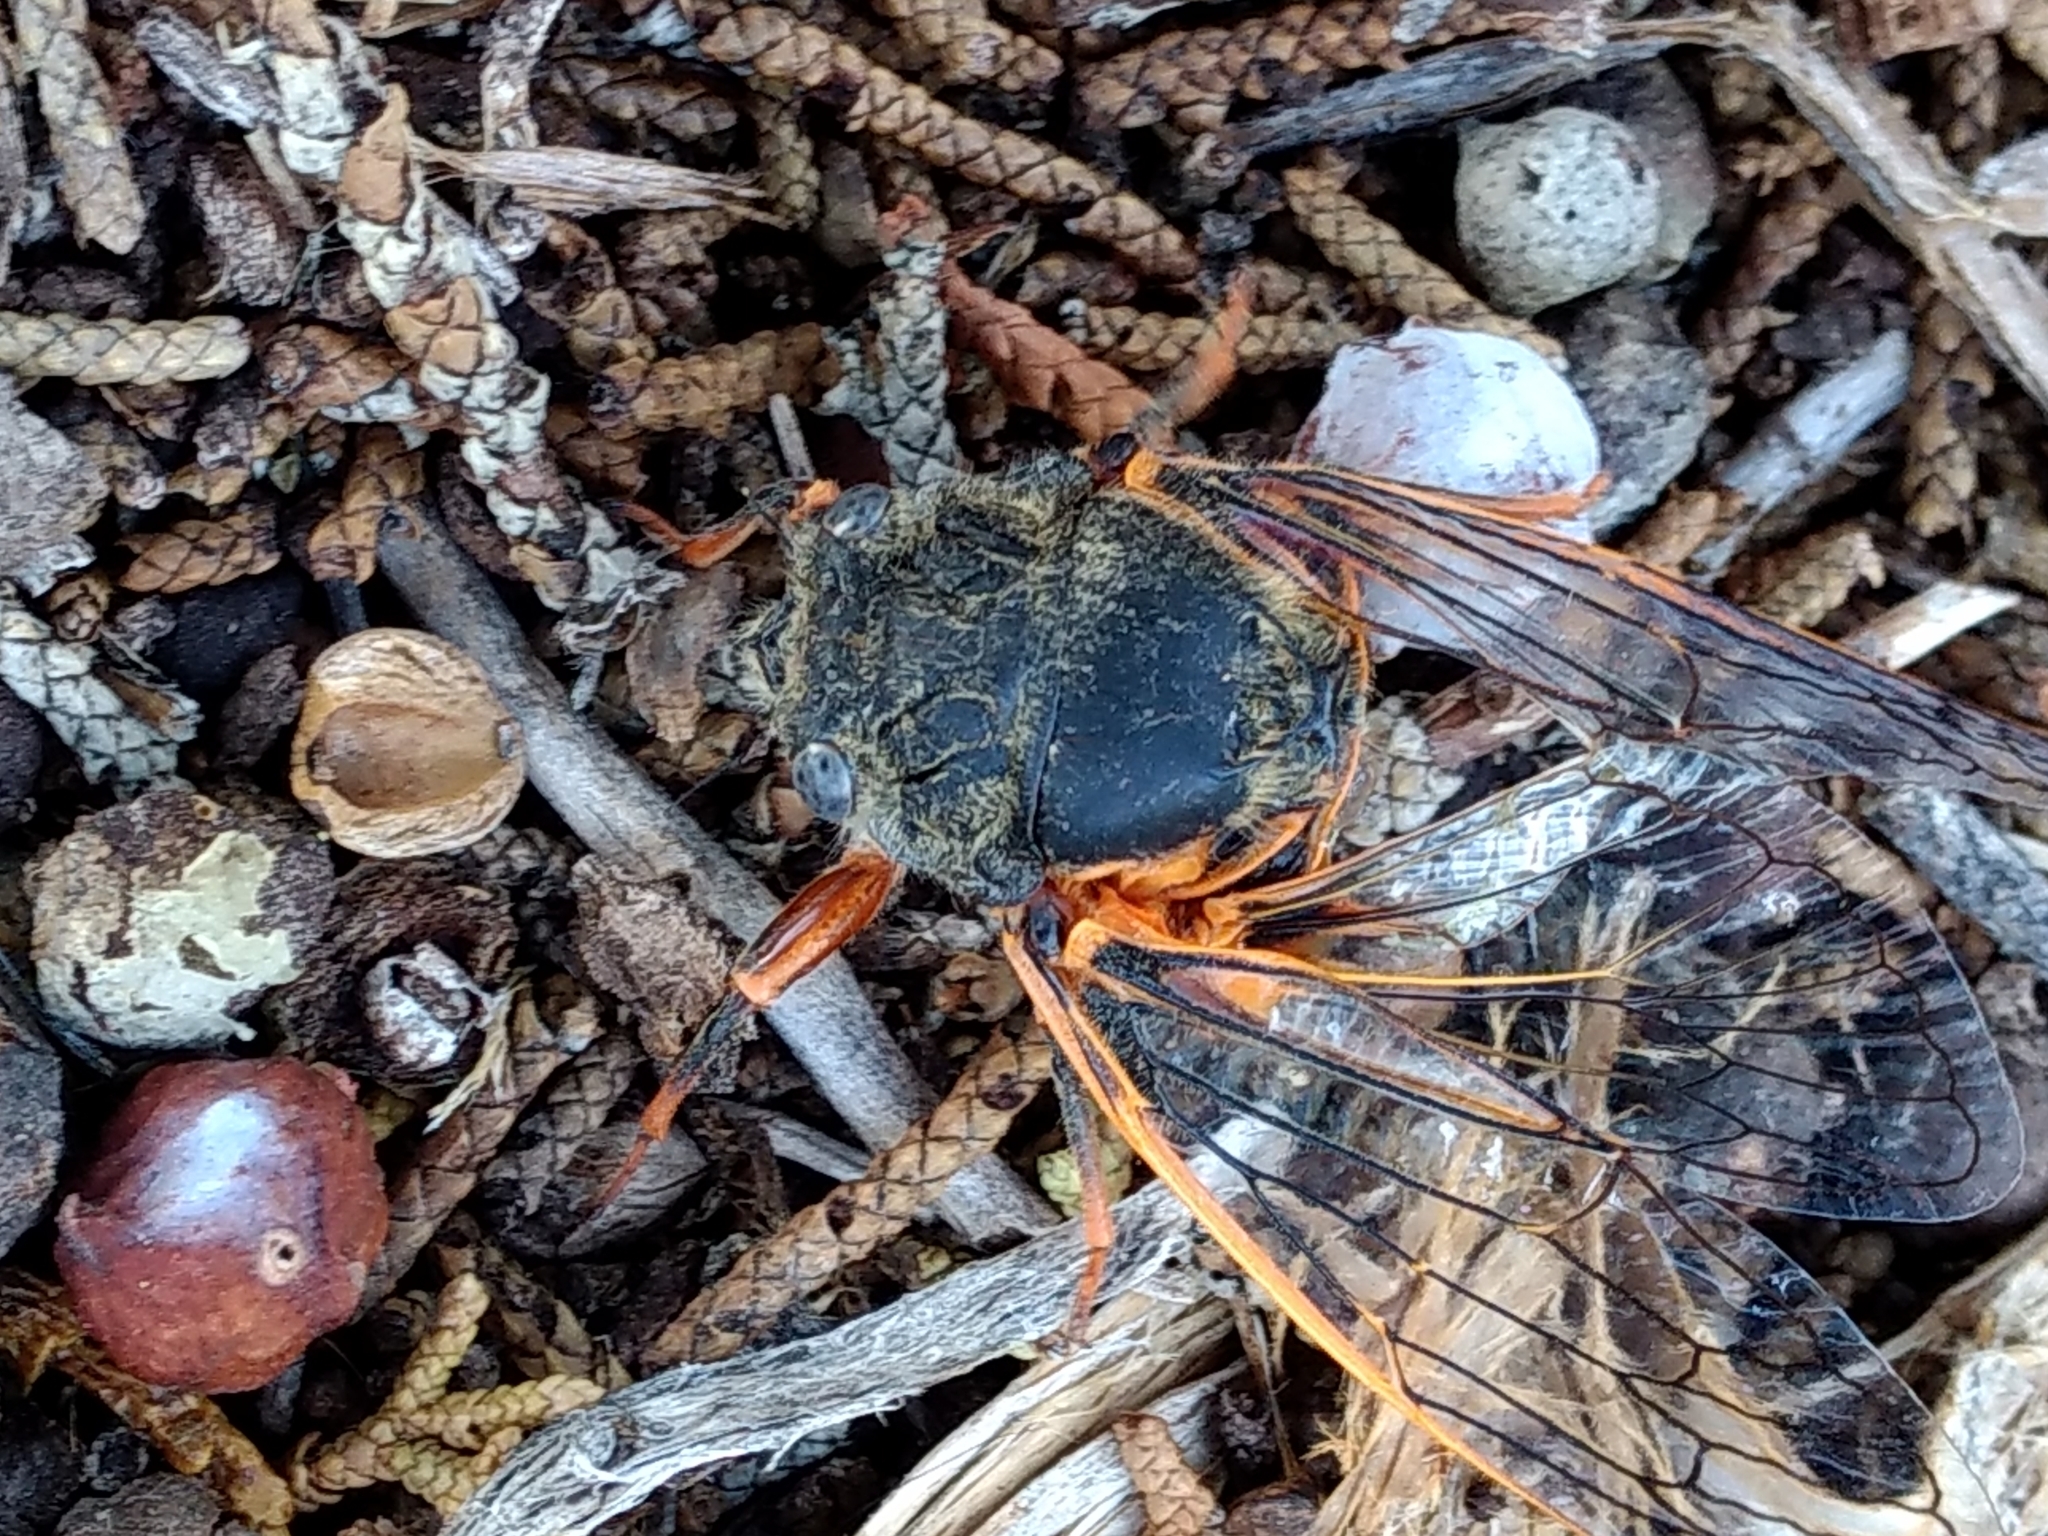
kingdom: Animalia
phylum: Arthropoda
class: Insecta
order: Hemiptera
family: Cicadidae
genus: Okanagana
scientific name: Okanagana magnifica
